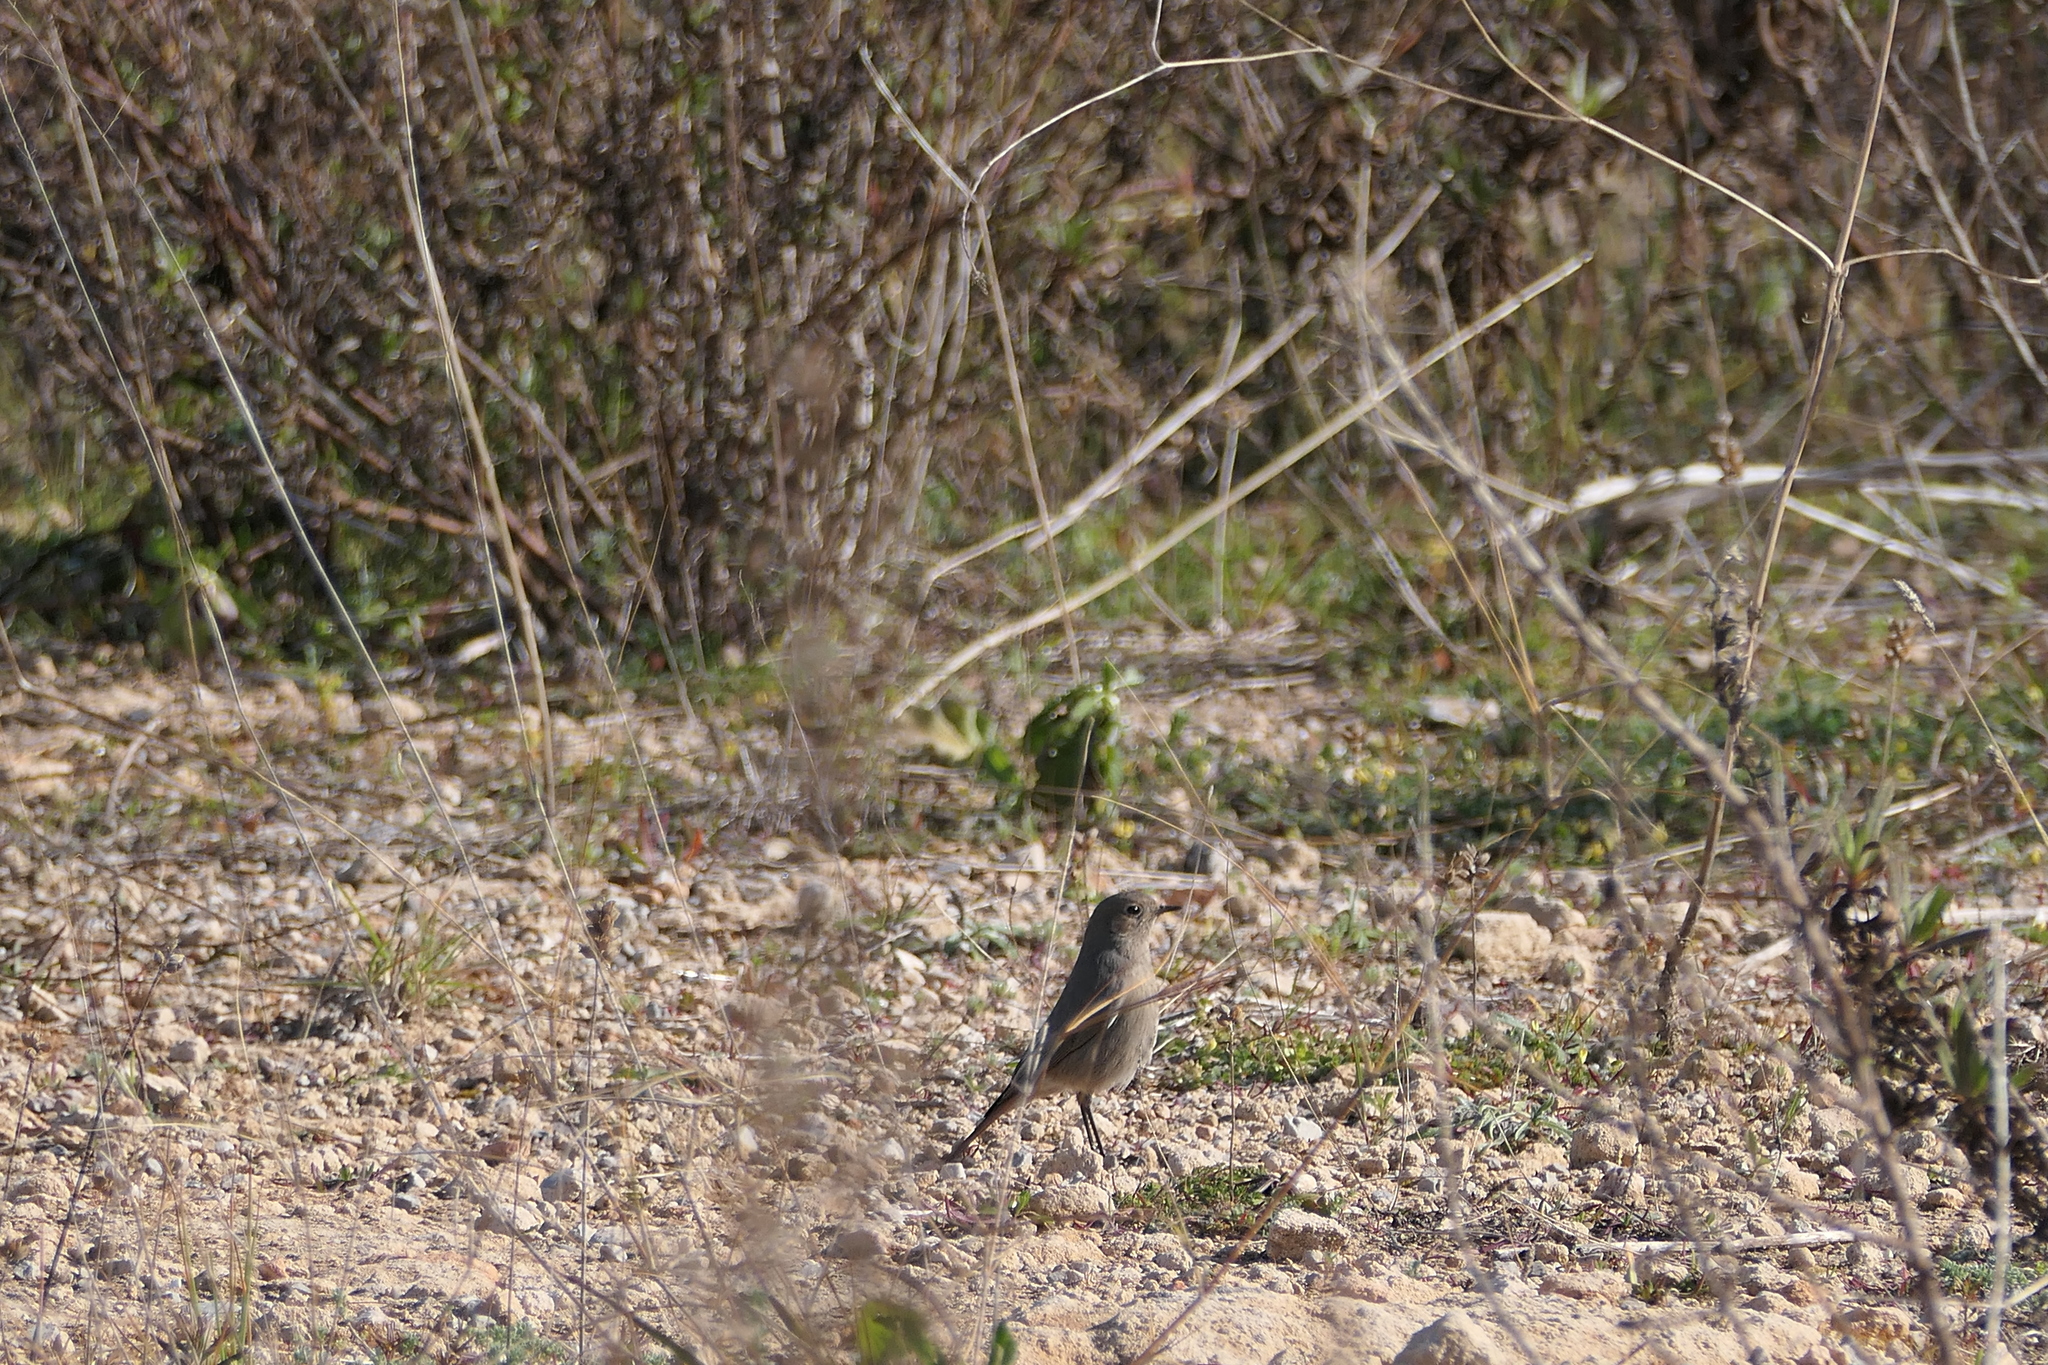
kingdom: Animalia
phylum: Chordata
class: Aves
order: Passeriformes
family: Muscicapidae
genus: Phoenicurus
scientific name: Phoenicurus ochruros
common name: Black redstart
